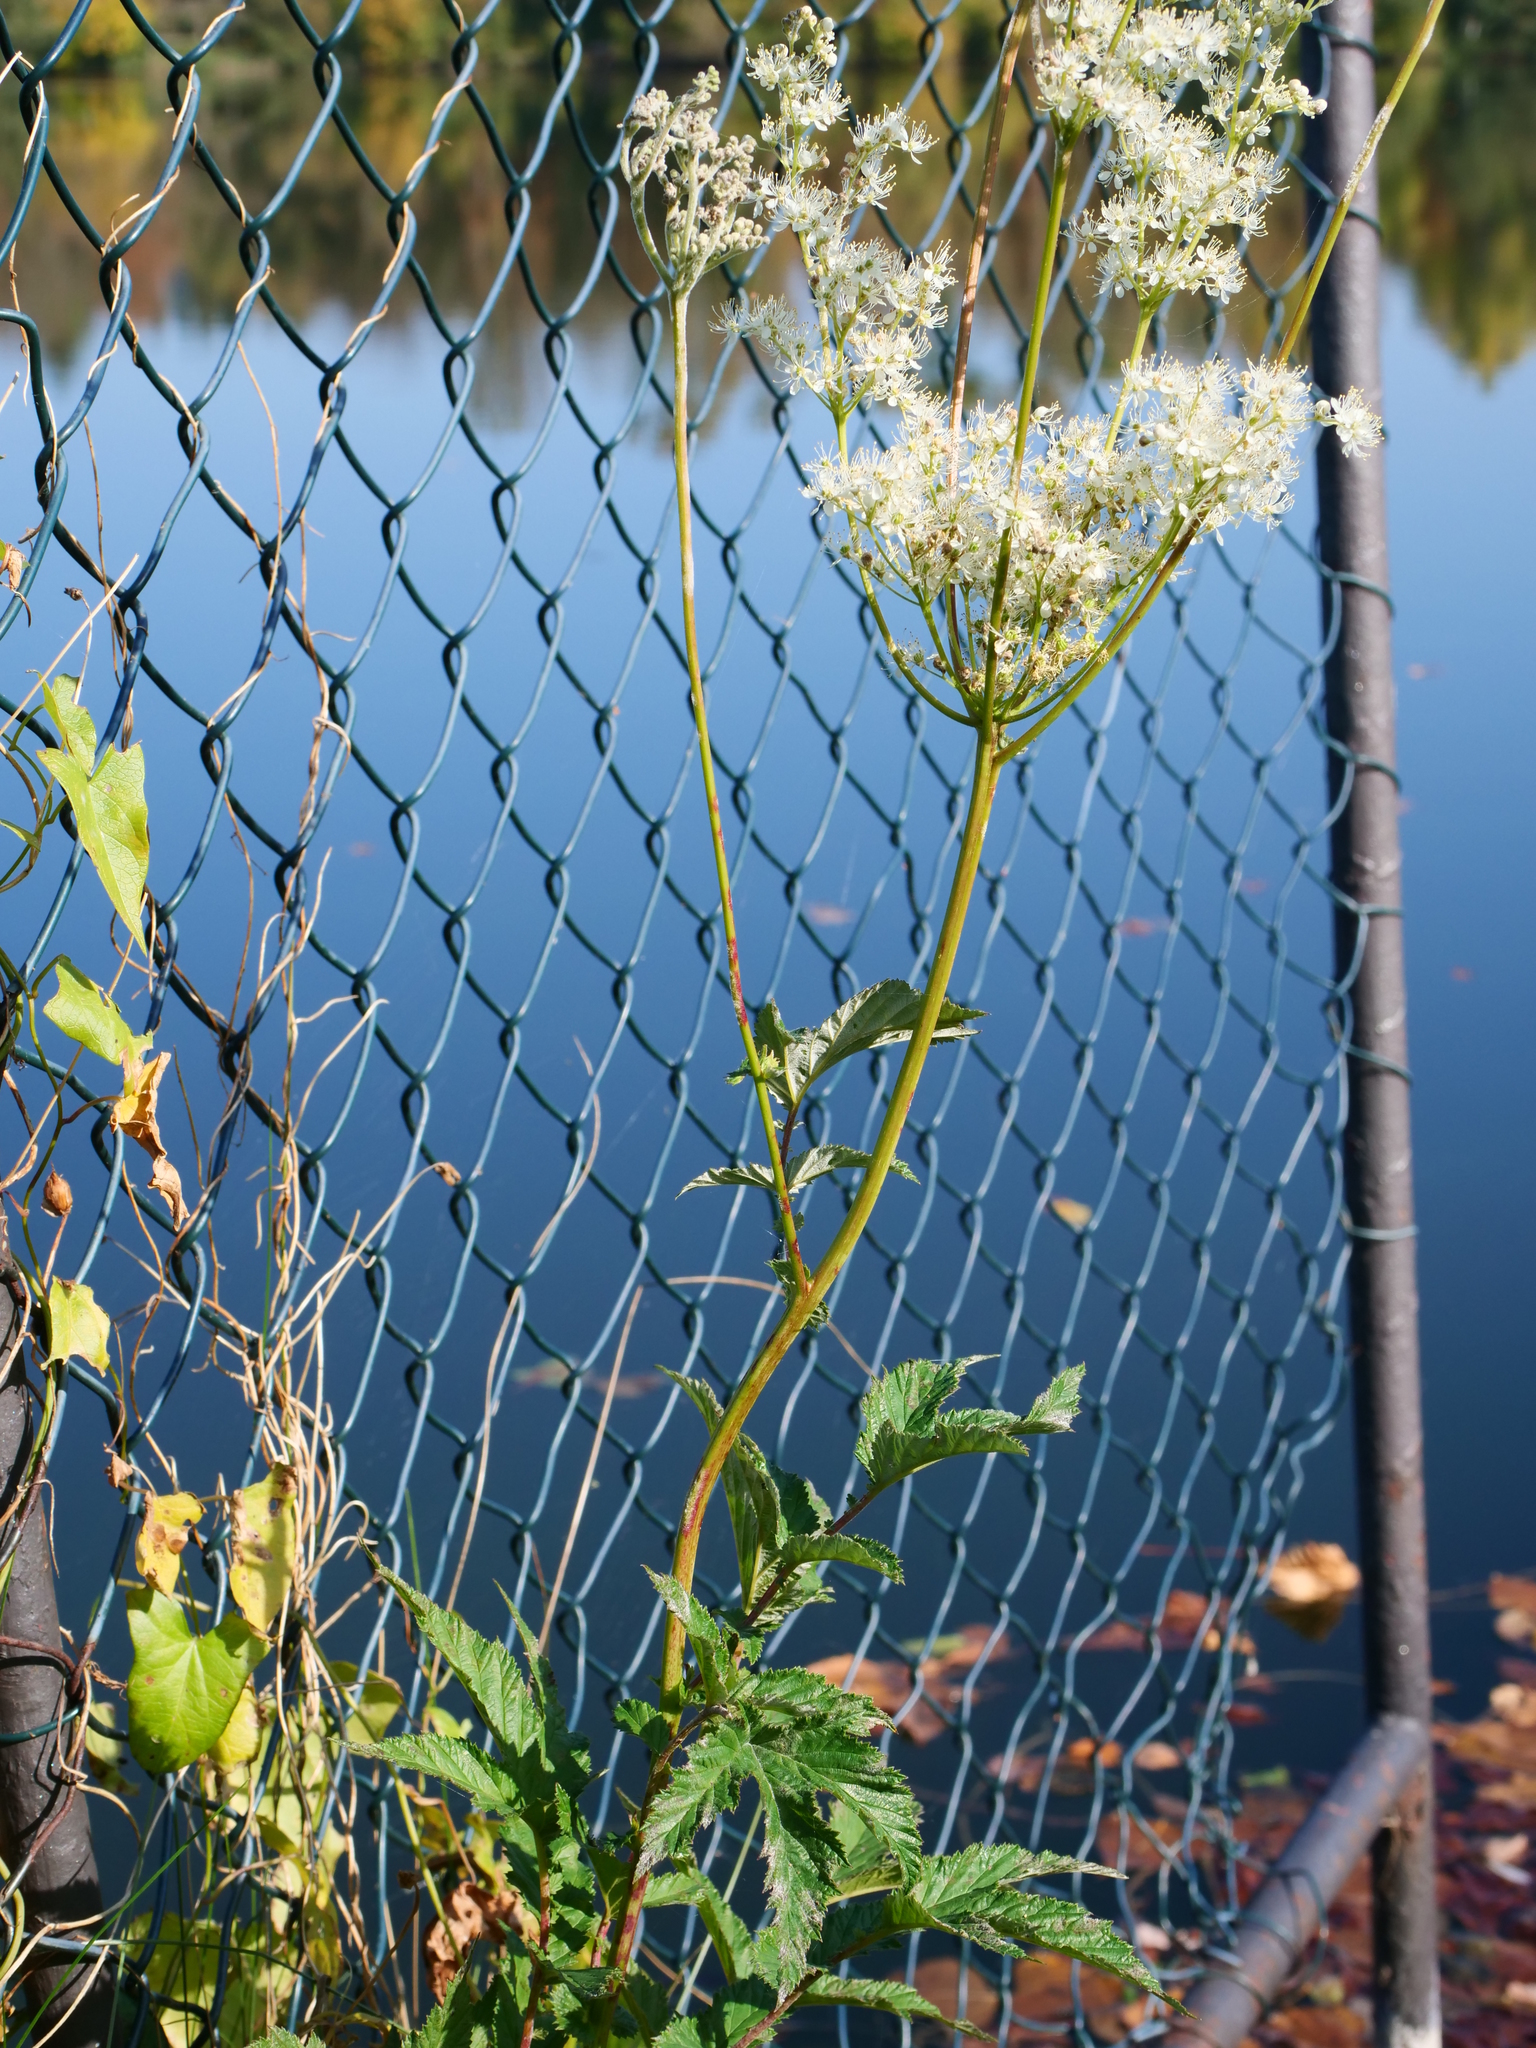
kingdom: Plantae
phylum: Tracheophyta
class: Magnoliopsida
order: Rosales
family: Rosaceae
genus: Filipendula
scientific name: Filipendula ulmaria
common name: Meadowsweet
